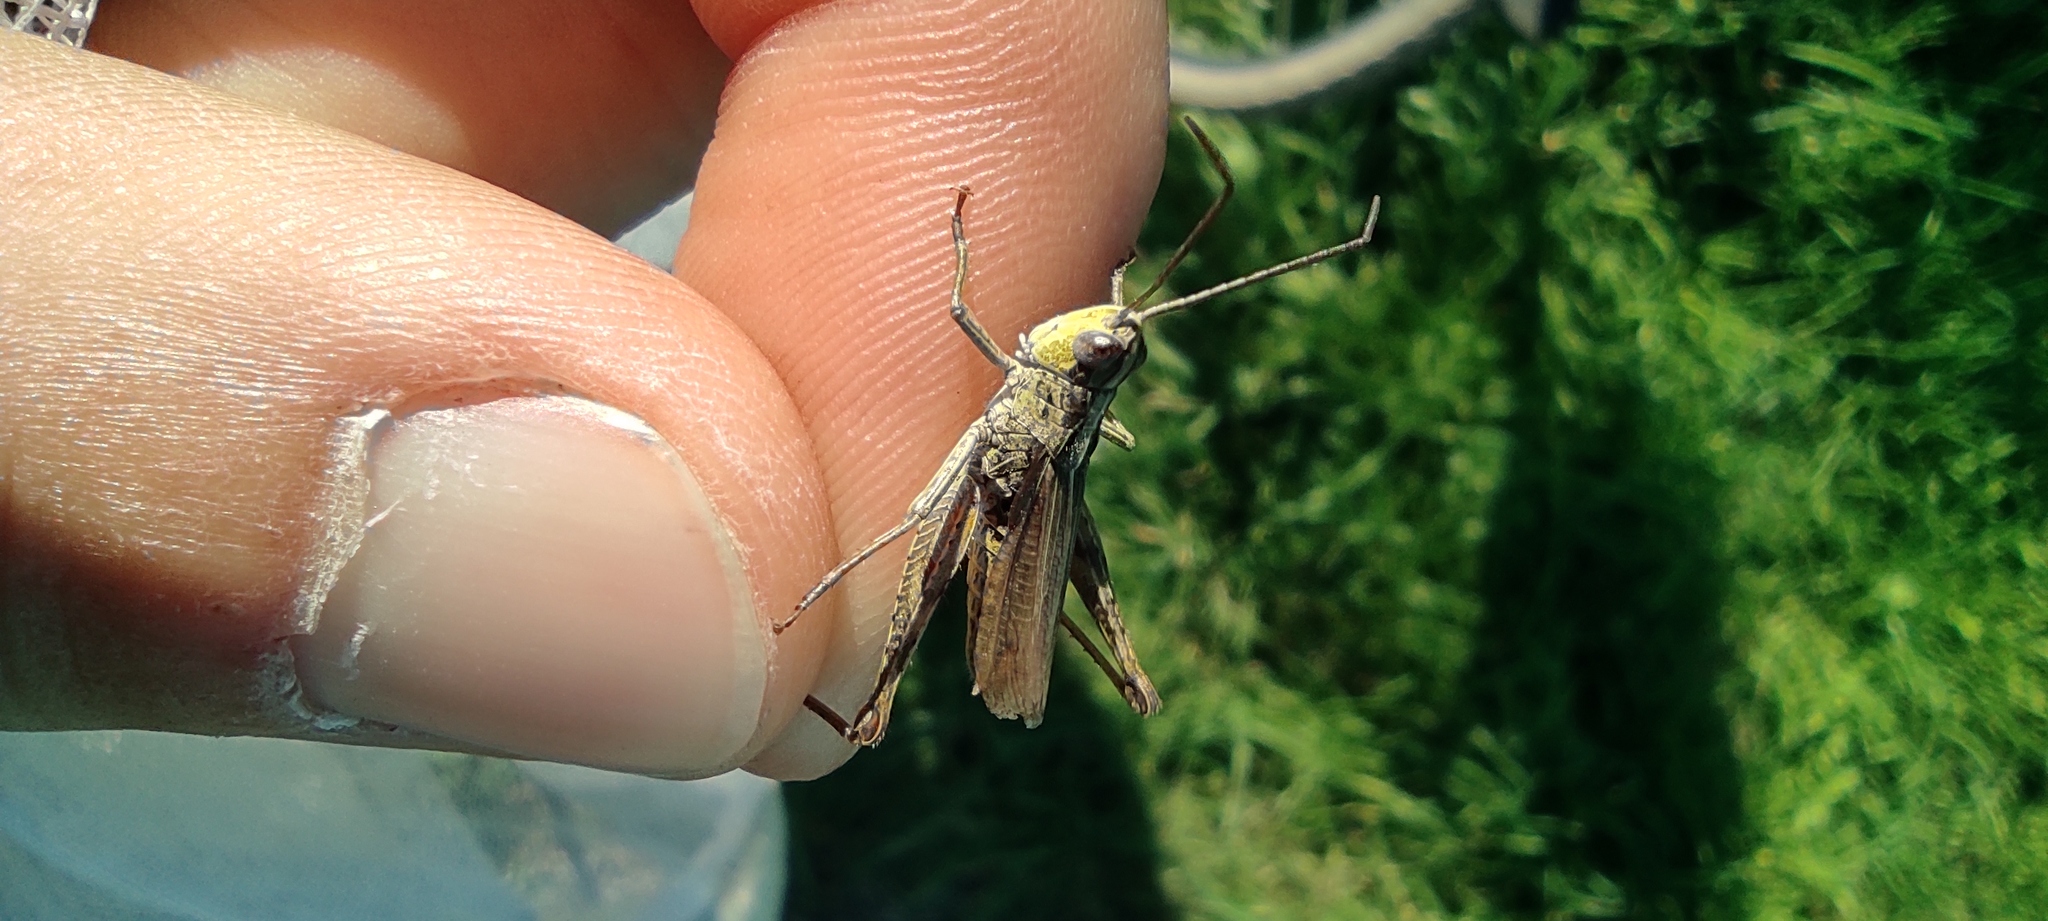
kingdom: Animalia
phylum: Arthropoda
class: Insecta
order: Orthoptera
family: Acrididae
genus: Chorthippus
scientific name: Chorthippus apricarius
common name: Upland field grasshopper
